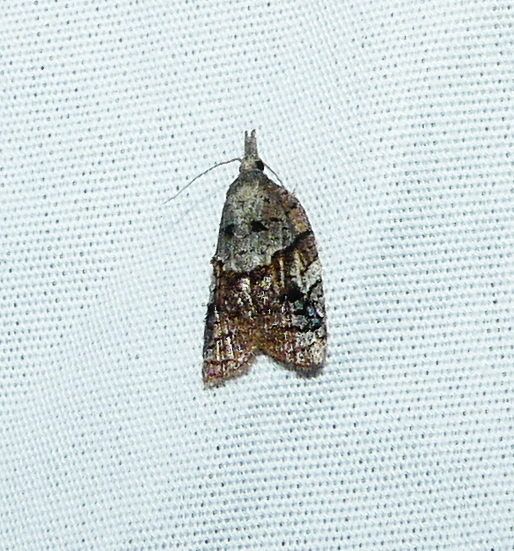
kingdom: Animalia
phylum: Arthropoda
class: Insecta
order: Lepidoptera
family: Tortricidae
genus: Platynota
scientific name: Platynota idaeusalis
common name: Tufted apple bud moth
